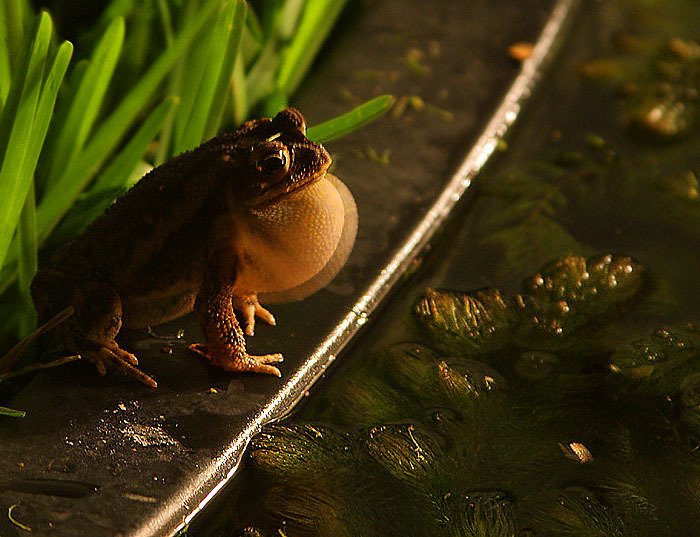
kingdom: Animalia
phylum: Chordata
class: Amphibia
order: Anura
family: Bufonidae
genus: Incilius
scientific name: Incilius nebulifer
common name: Gulf coast toad
